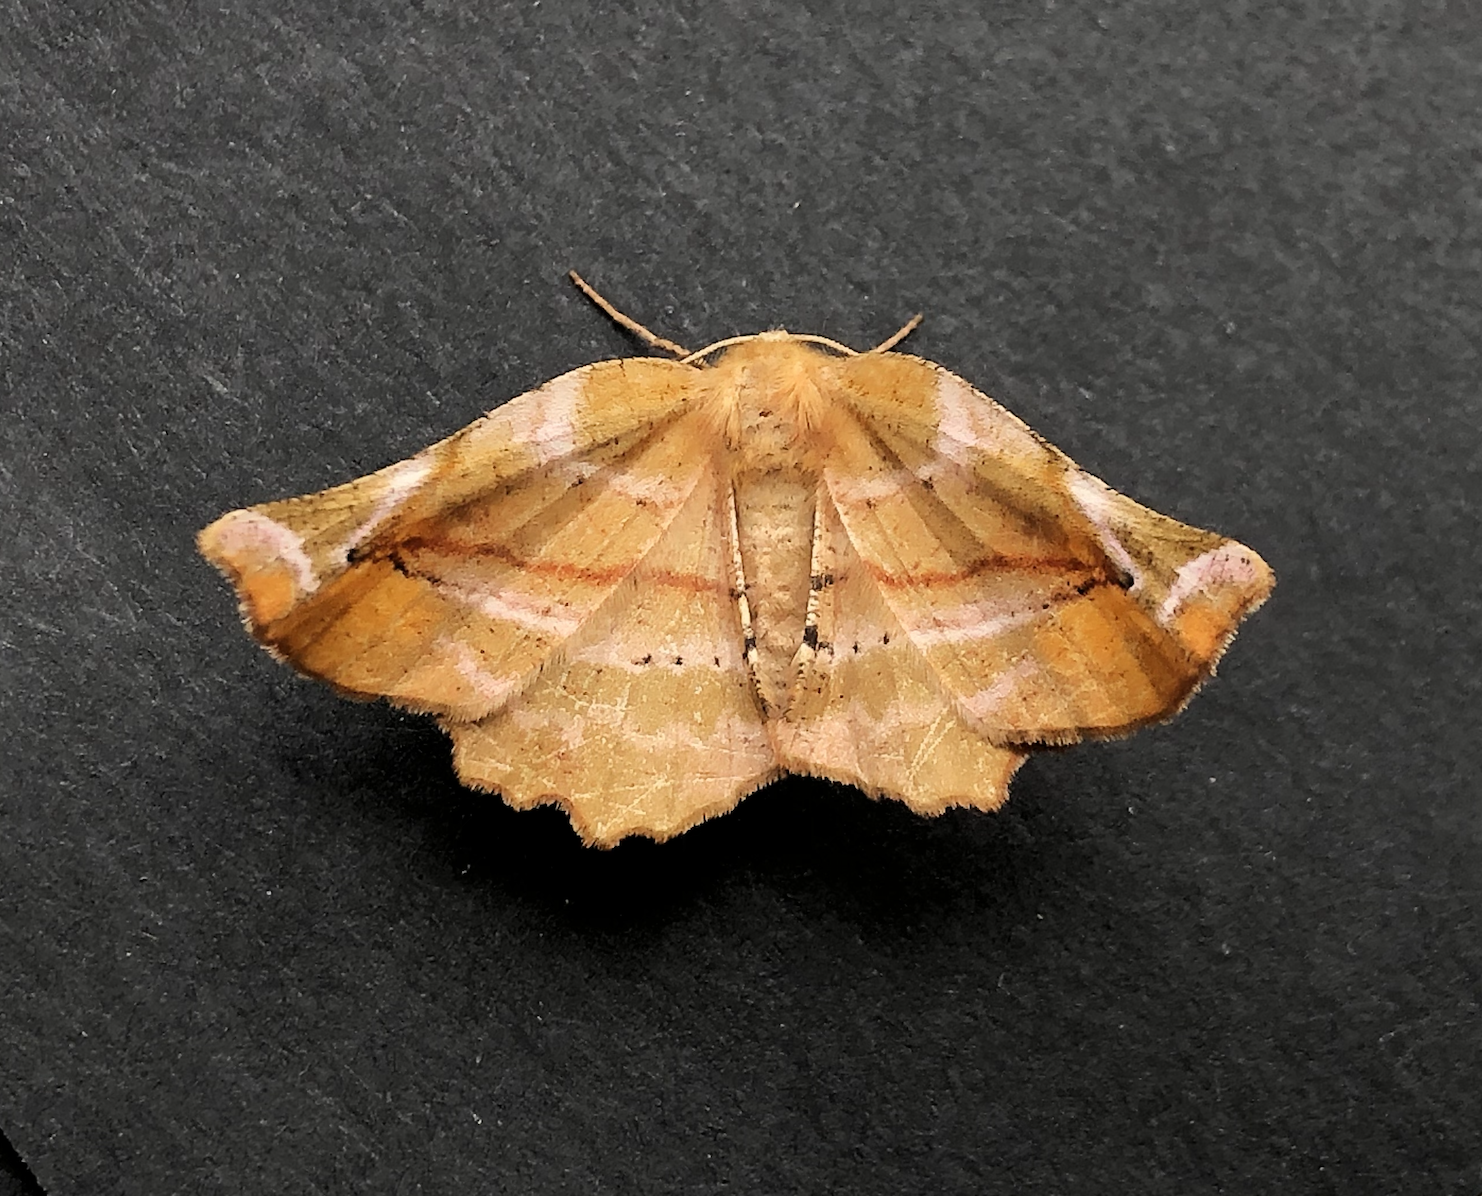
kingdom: Animalia
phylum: Arthropoda
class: Insecta
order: Lepidoptera
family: Geometridae
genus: Apeira
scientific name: Apeira syringaria
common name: Lilac beauty
